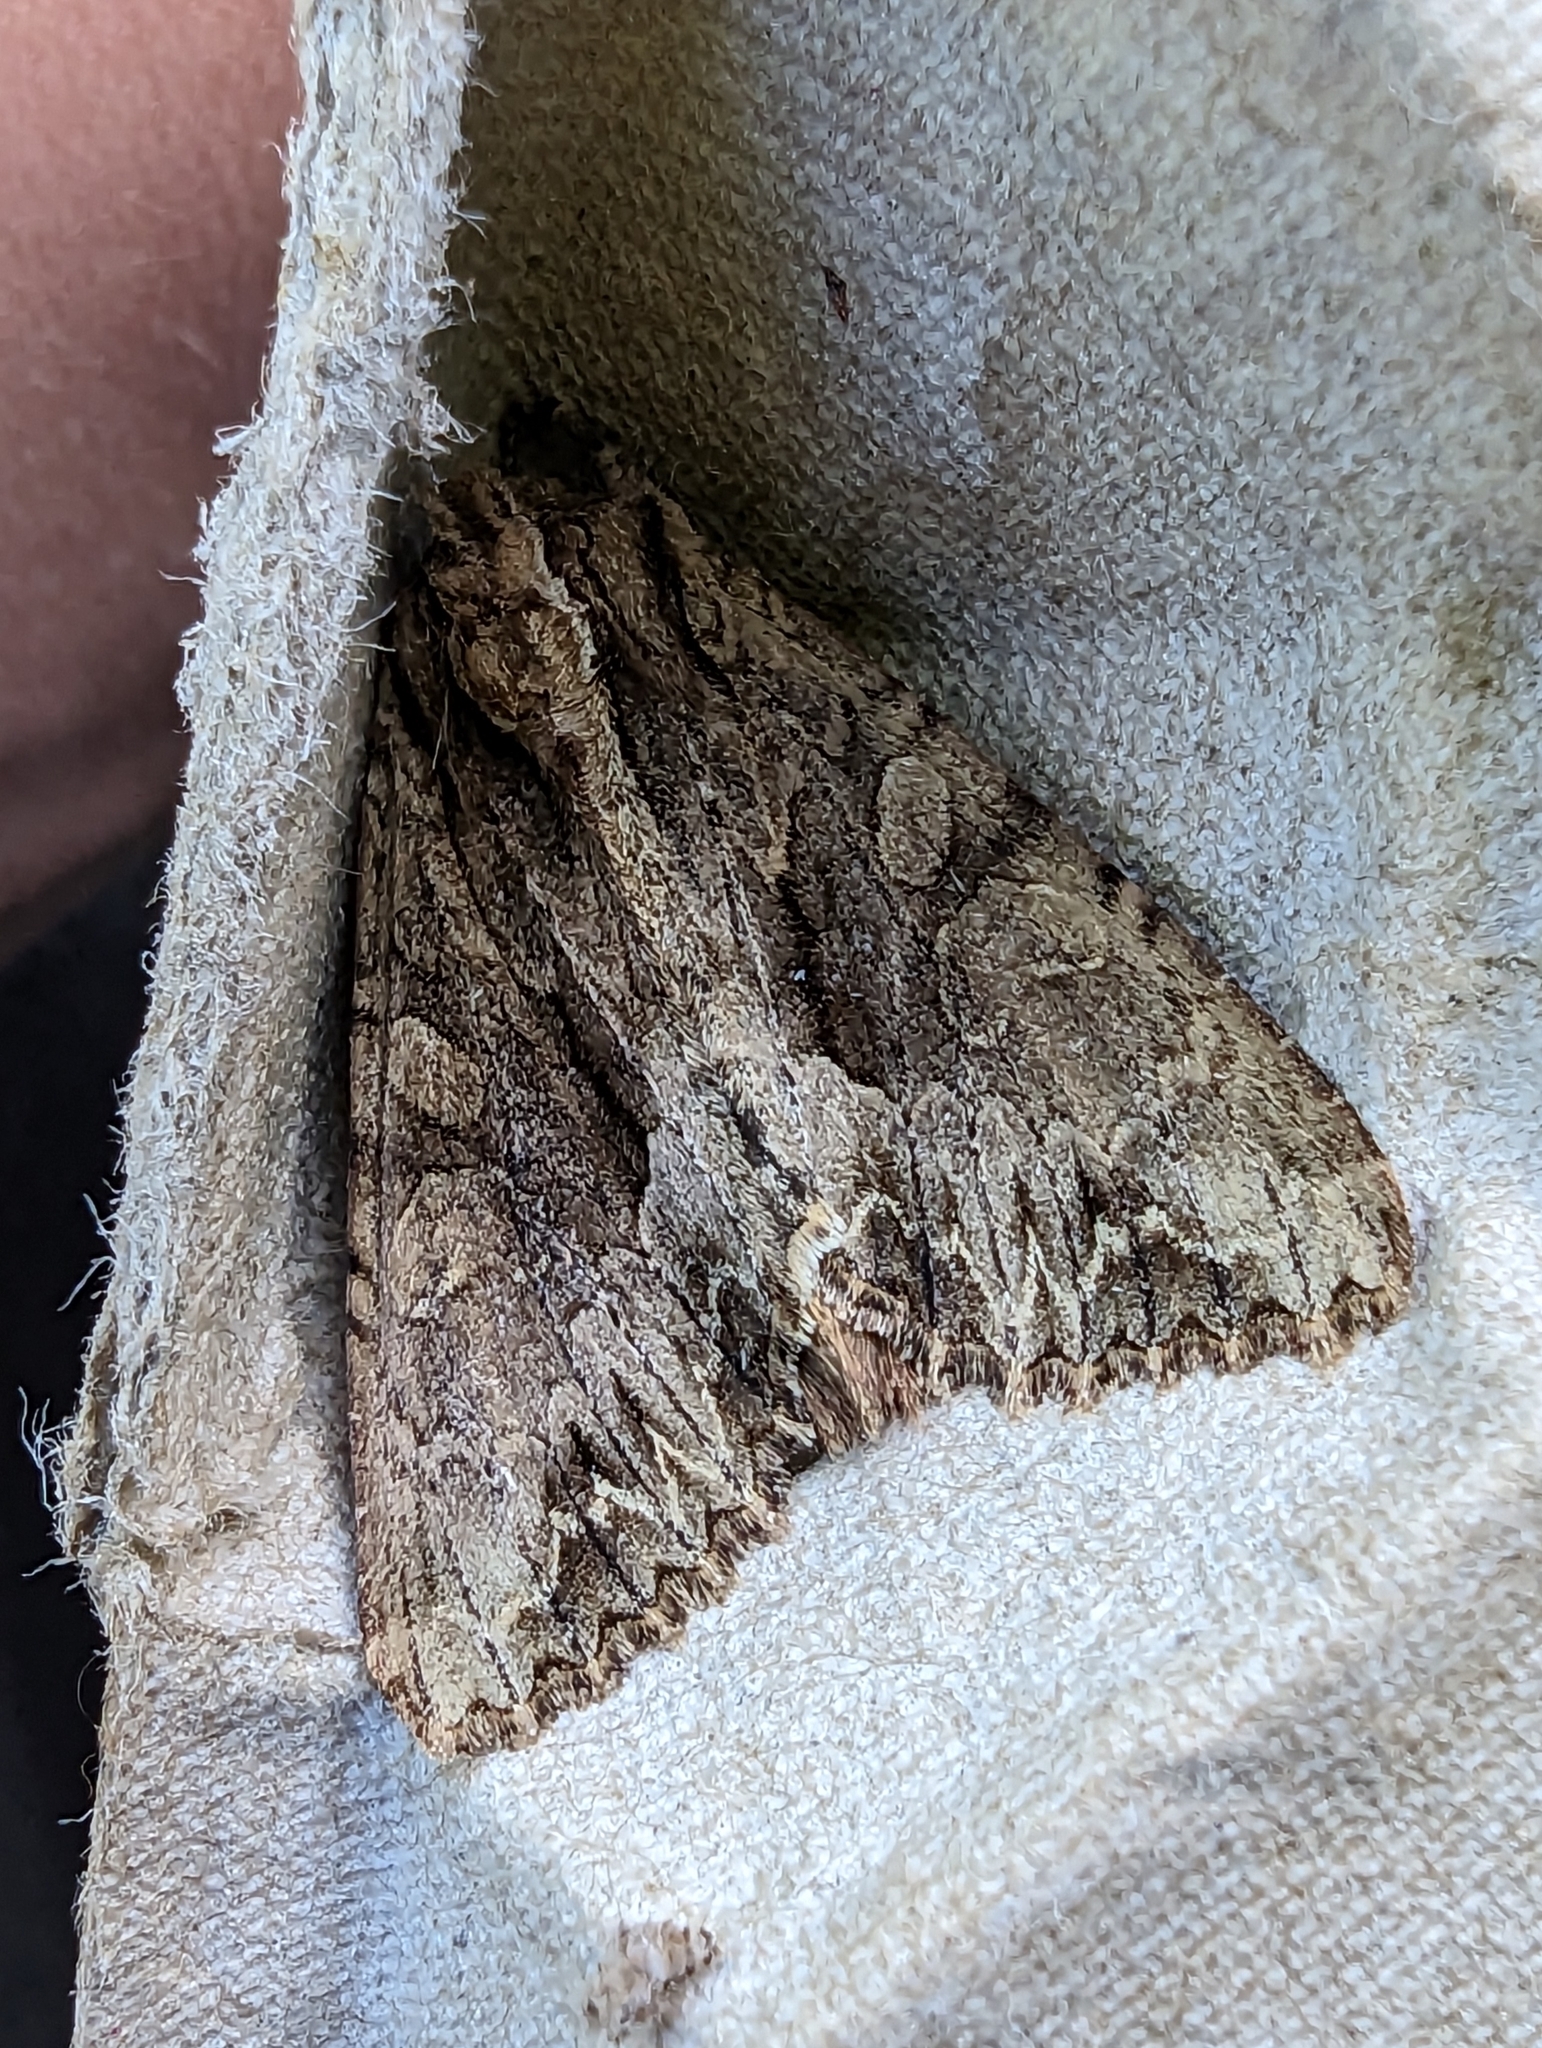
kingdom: Animalia
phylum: Arthropoda
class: Insecta
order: Lepidoptera
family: Noctuidae
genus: Apamea
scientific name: Apamea monoglypha
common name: Dark arches
